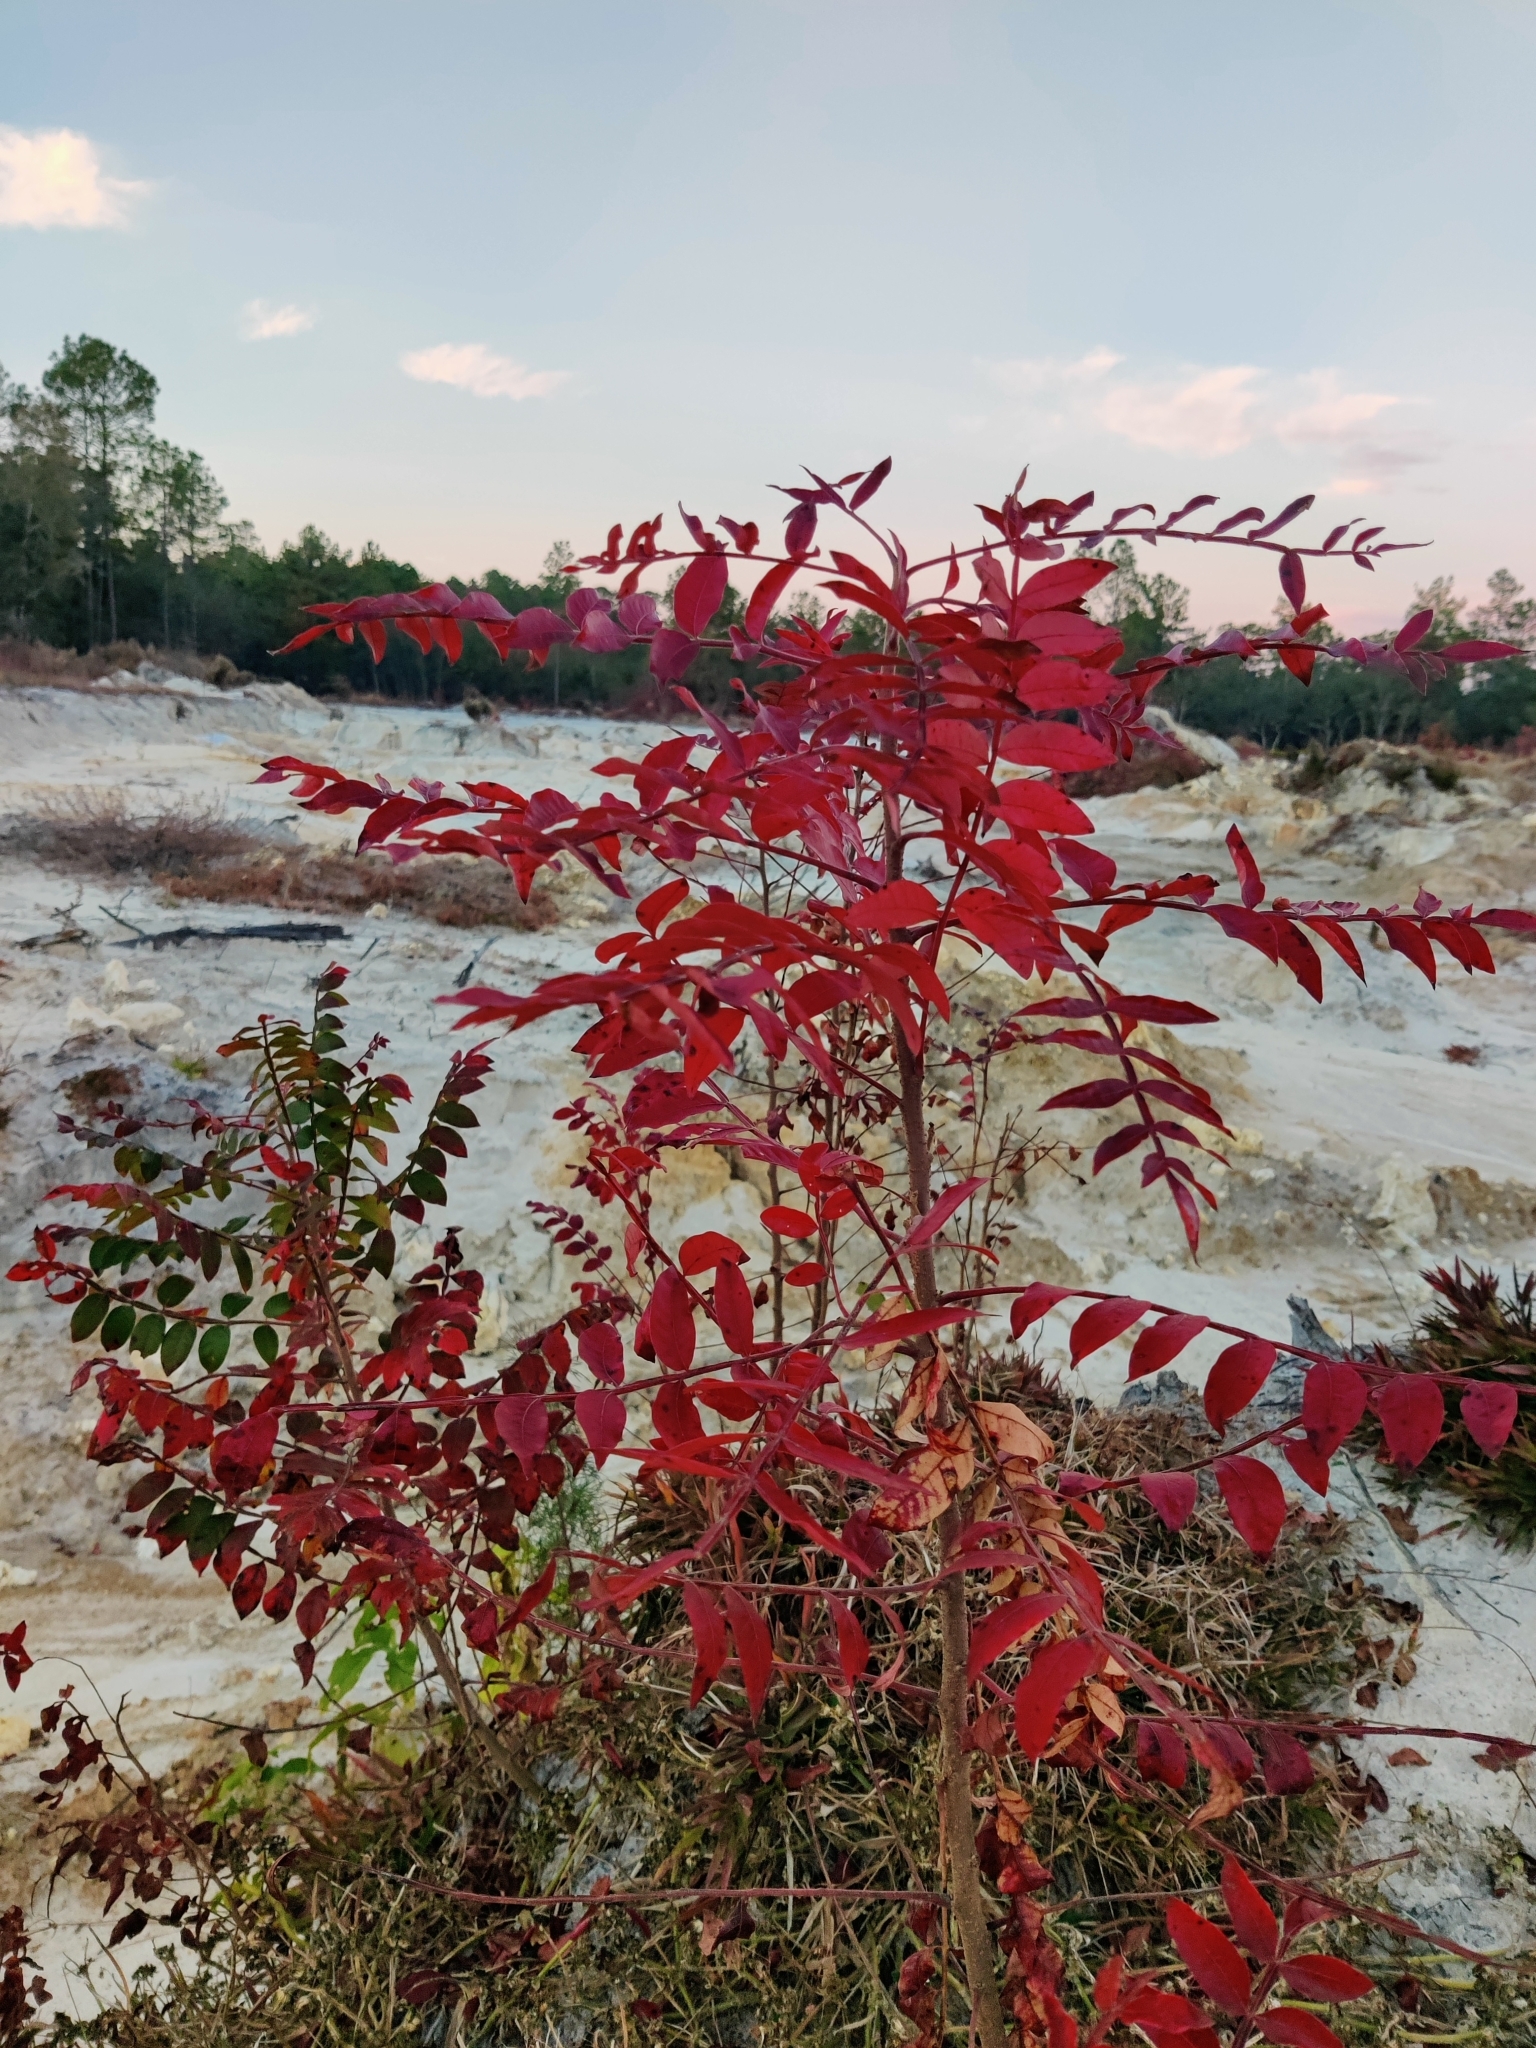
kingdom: Plantae
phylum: Tracheophyta
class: Magnoliopsida
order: Sapindales
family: Anacardiaceae
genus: Rhus
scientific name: Rhus copallina
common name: Shining sumac
